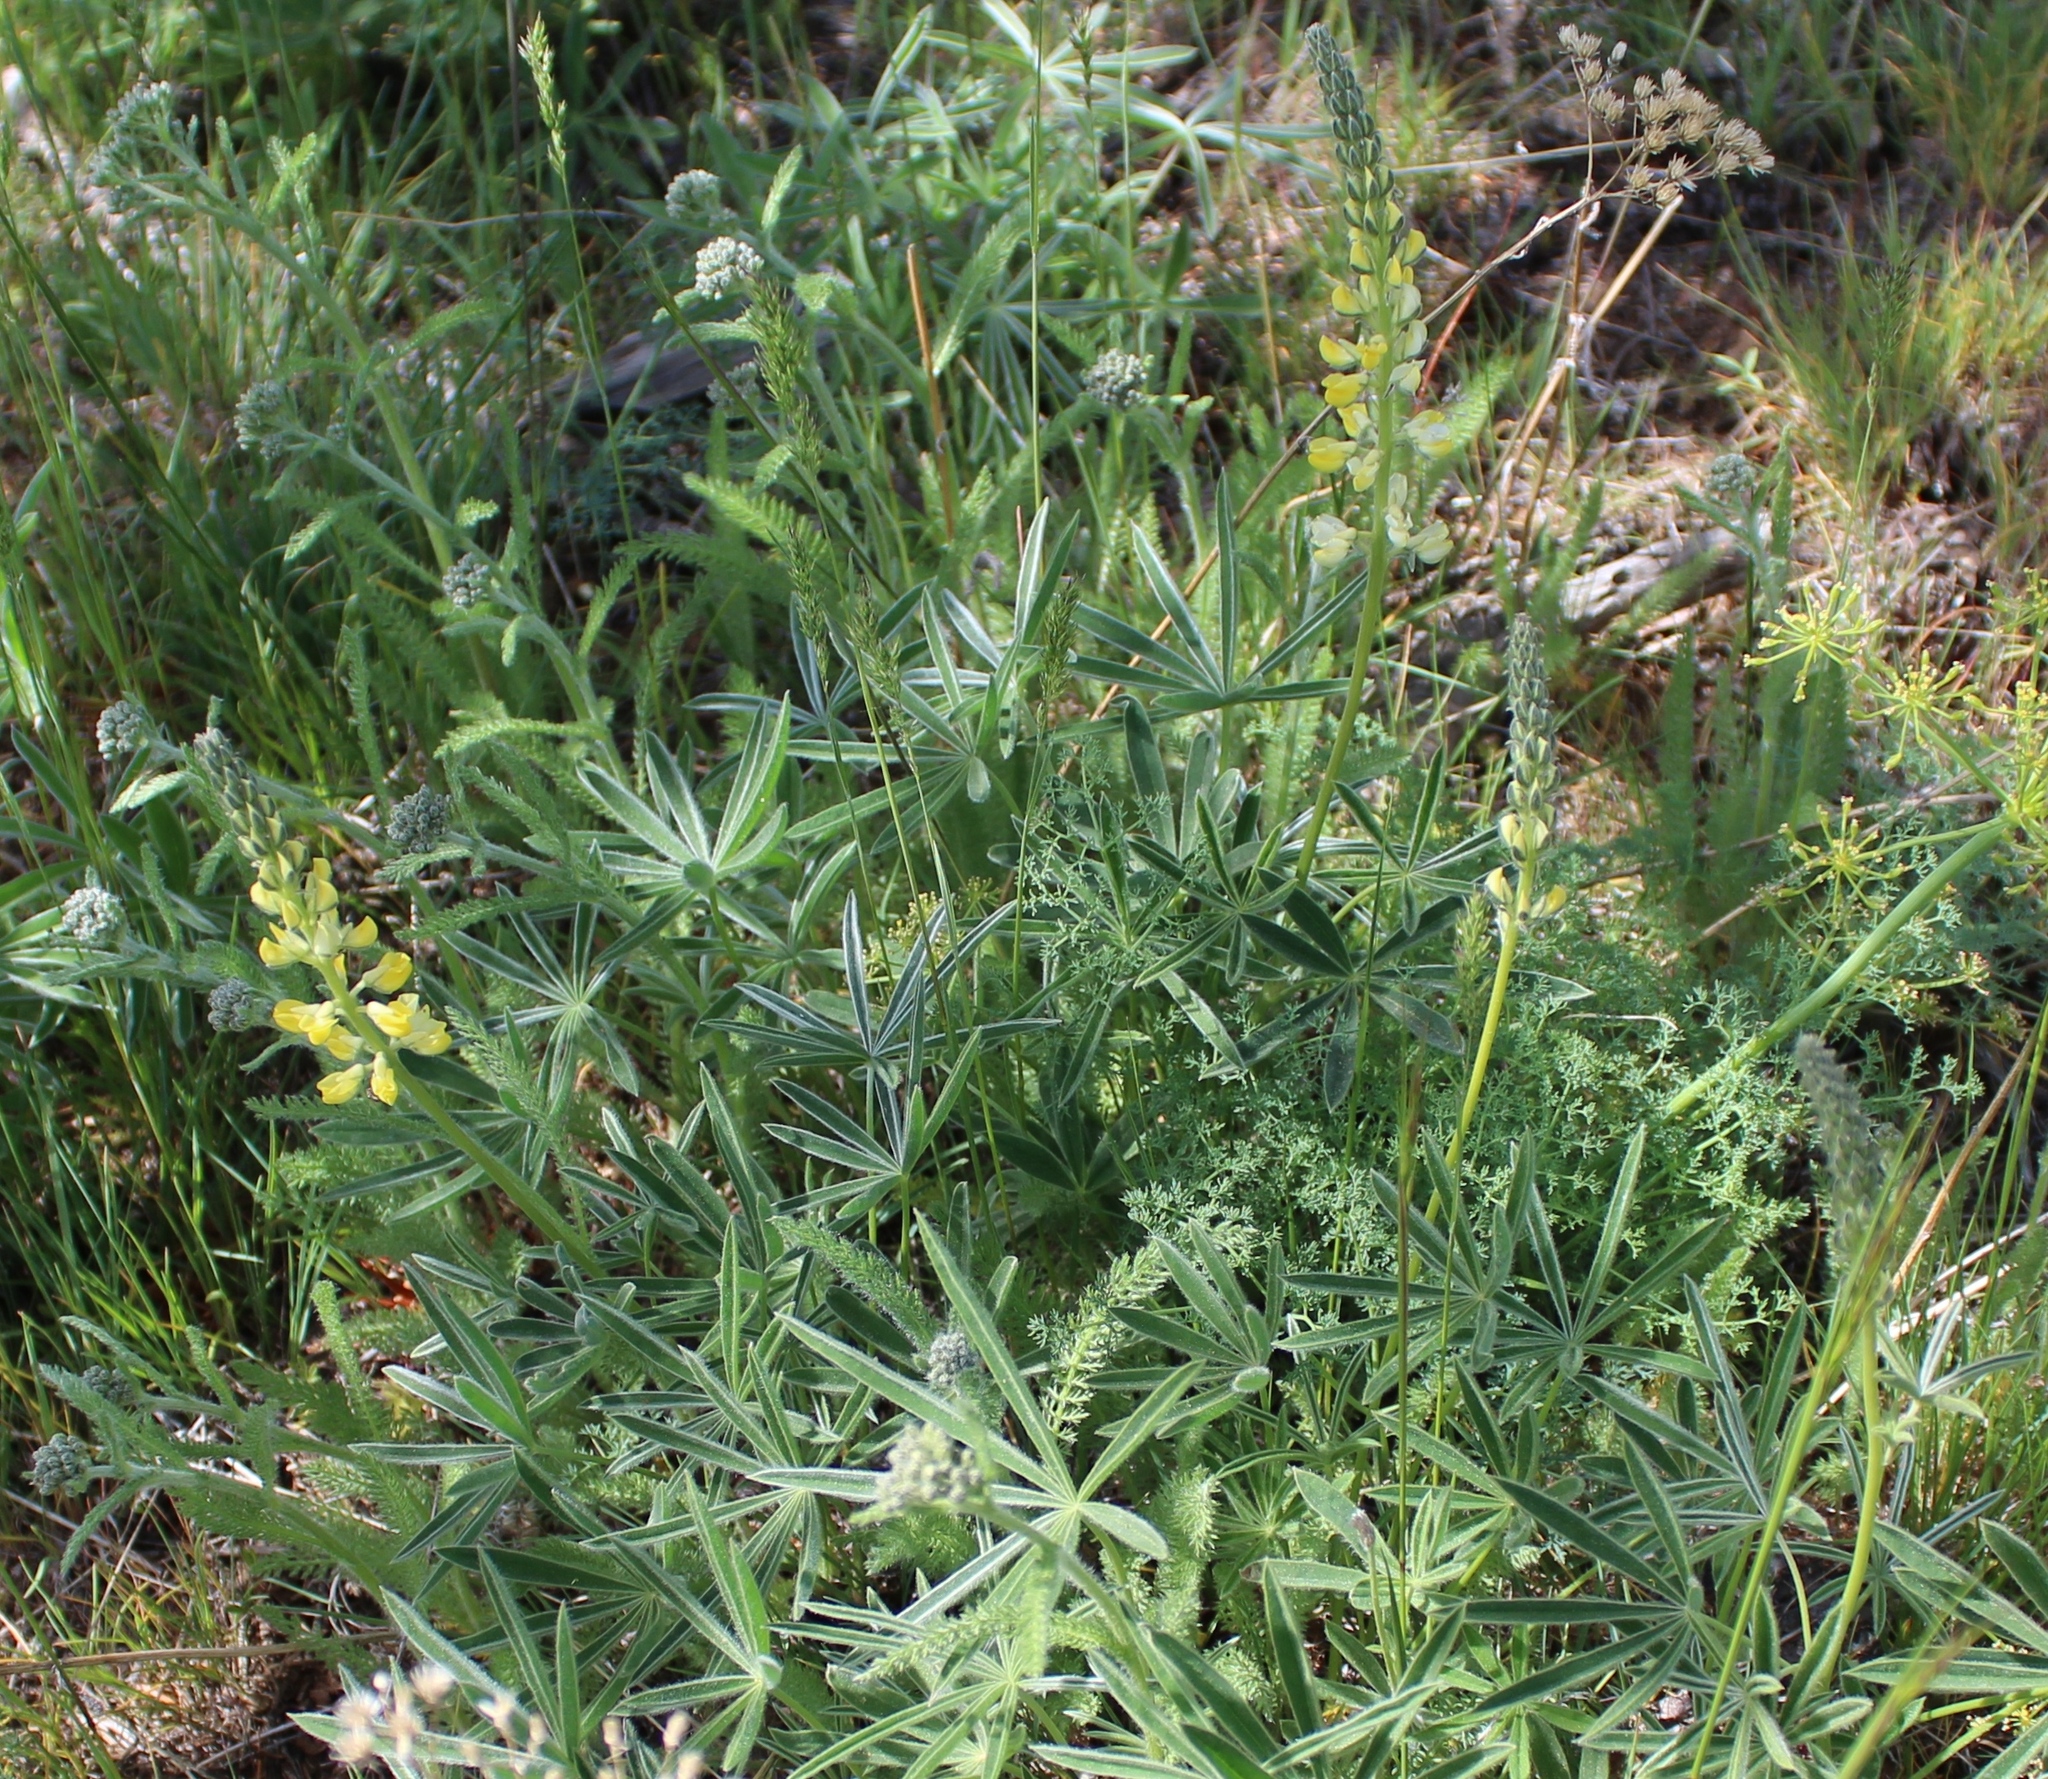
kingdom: Plantae
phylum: Tracheophyta
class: Magnoliopsida
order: Fabales
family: Fabaceae
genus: Lupinus
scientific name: Lupinus sulphureus
